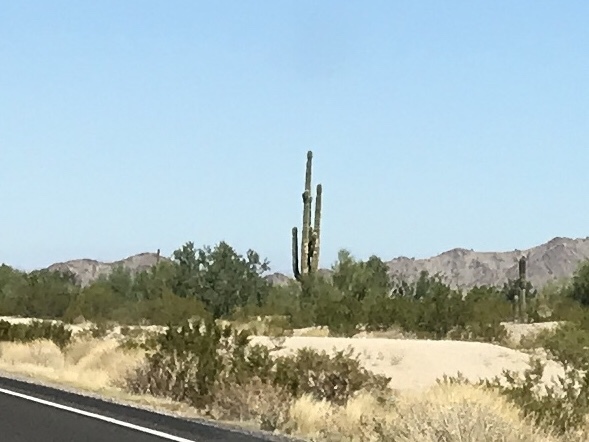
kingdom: Plantae
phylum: Tracheophyta
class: Magnoliopsida
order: Caryophyllales
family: Cactaceae
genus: Carnegiea
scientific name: Carnegiea gigantea
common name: Saguaro
